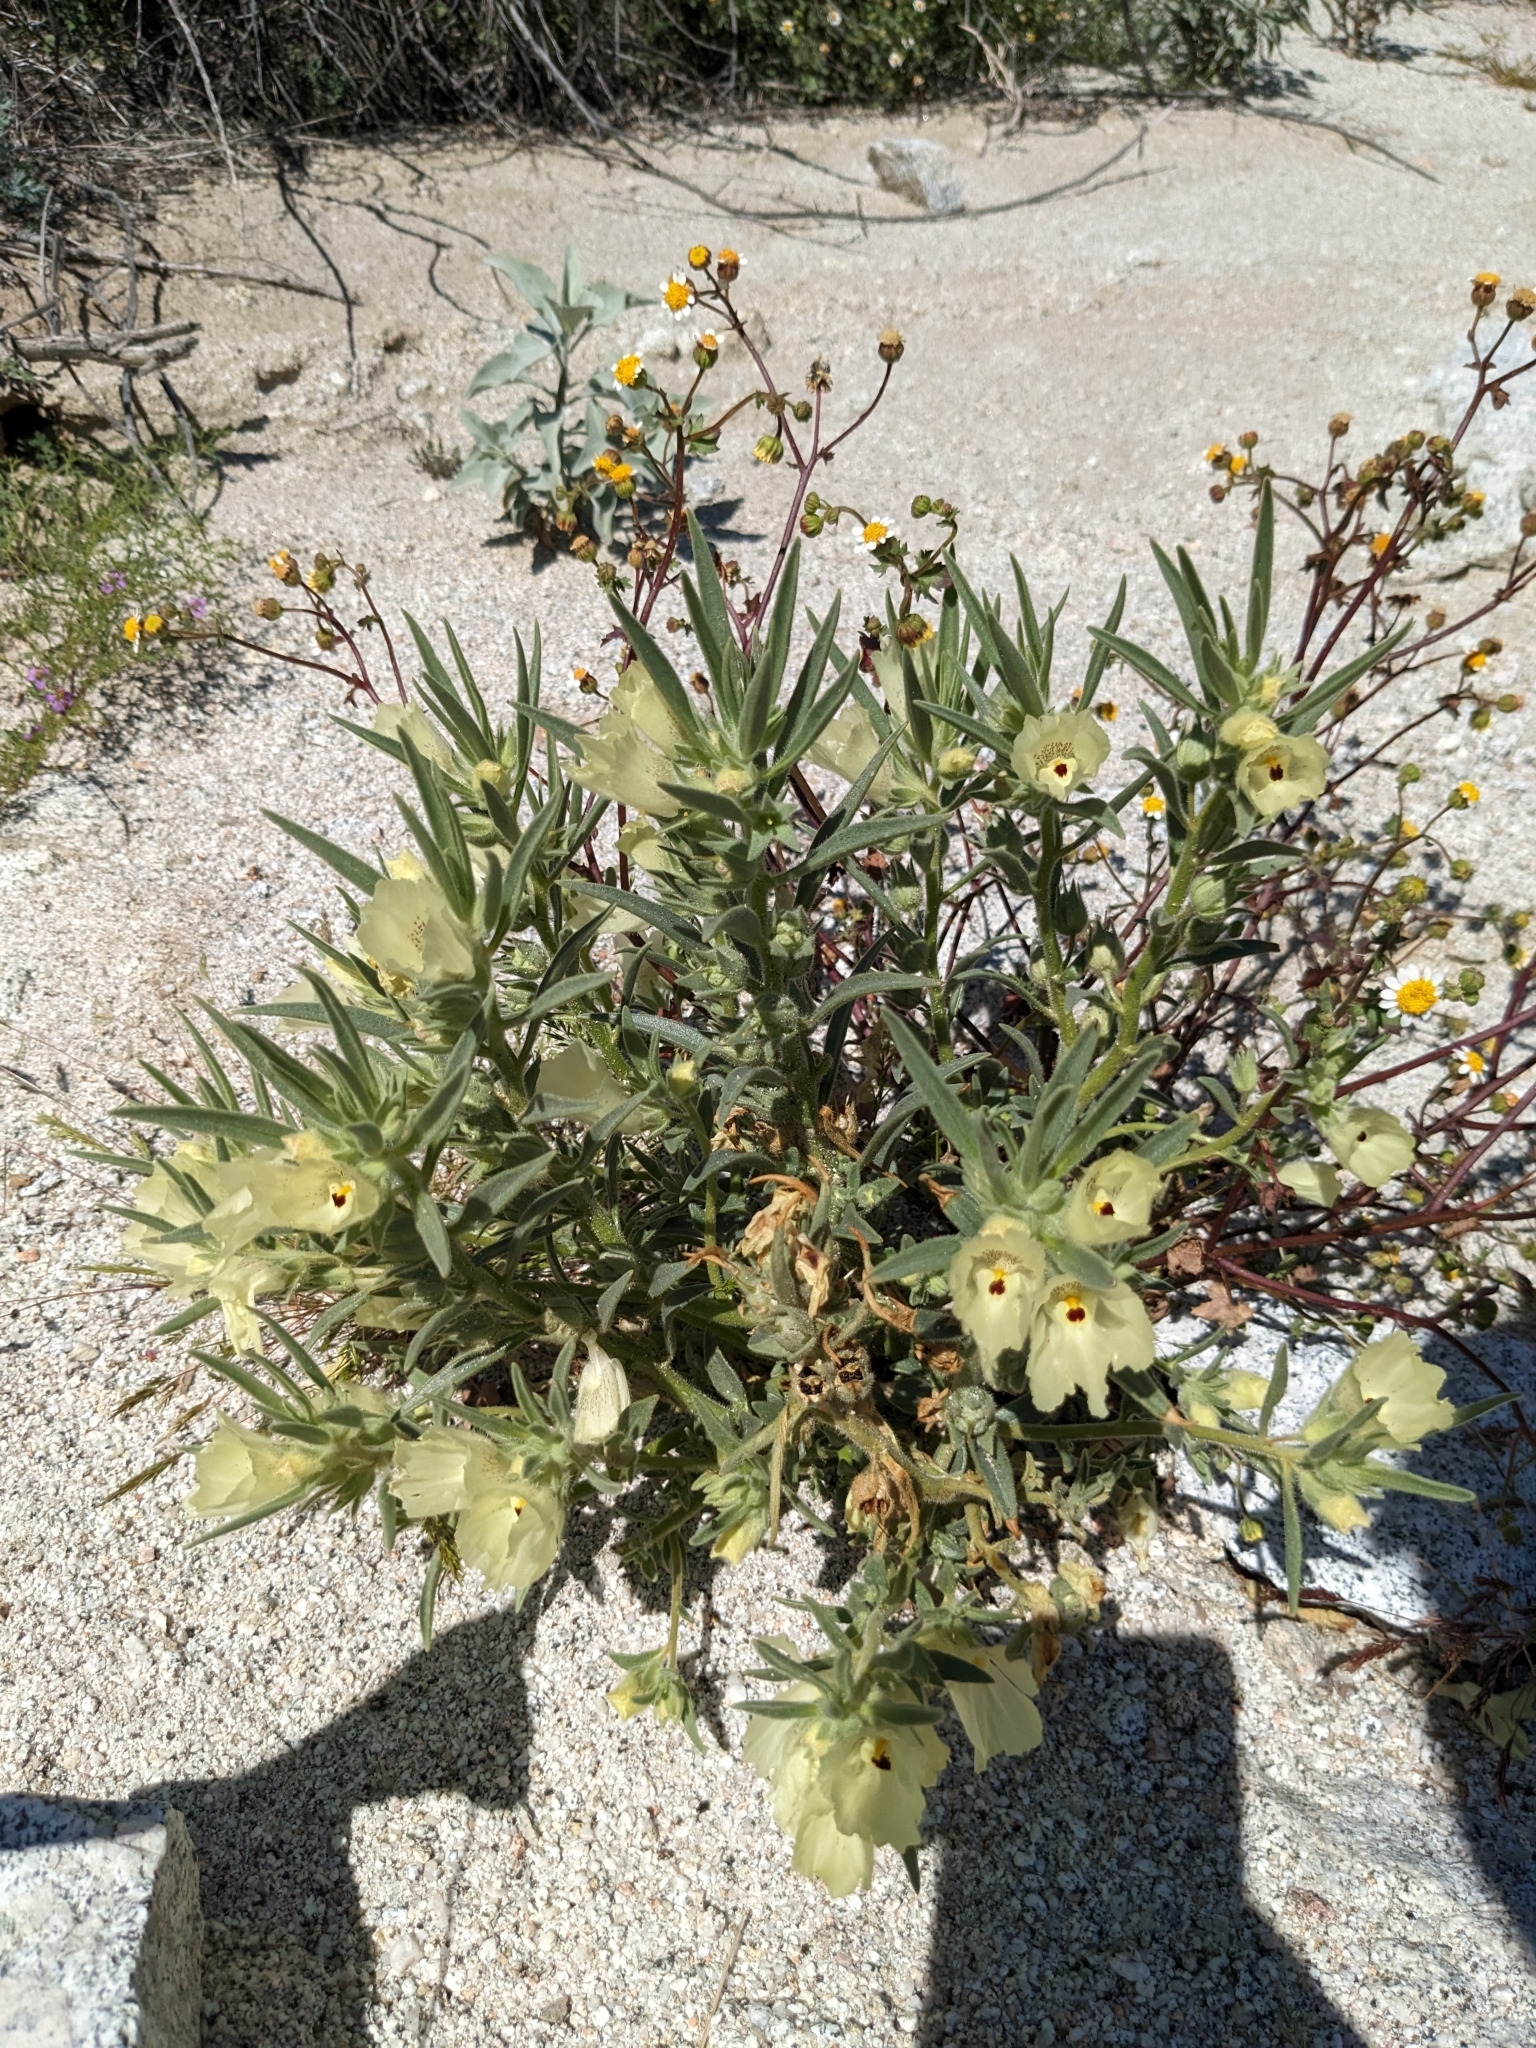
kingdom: Plantae
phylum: Tracheophyta
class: Magnoliopsida
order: Lamiales
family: Plantaginaceae
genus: Mohavea
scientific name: Mohavea confertiflora
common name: Ghost flower
